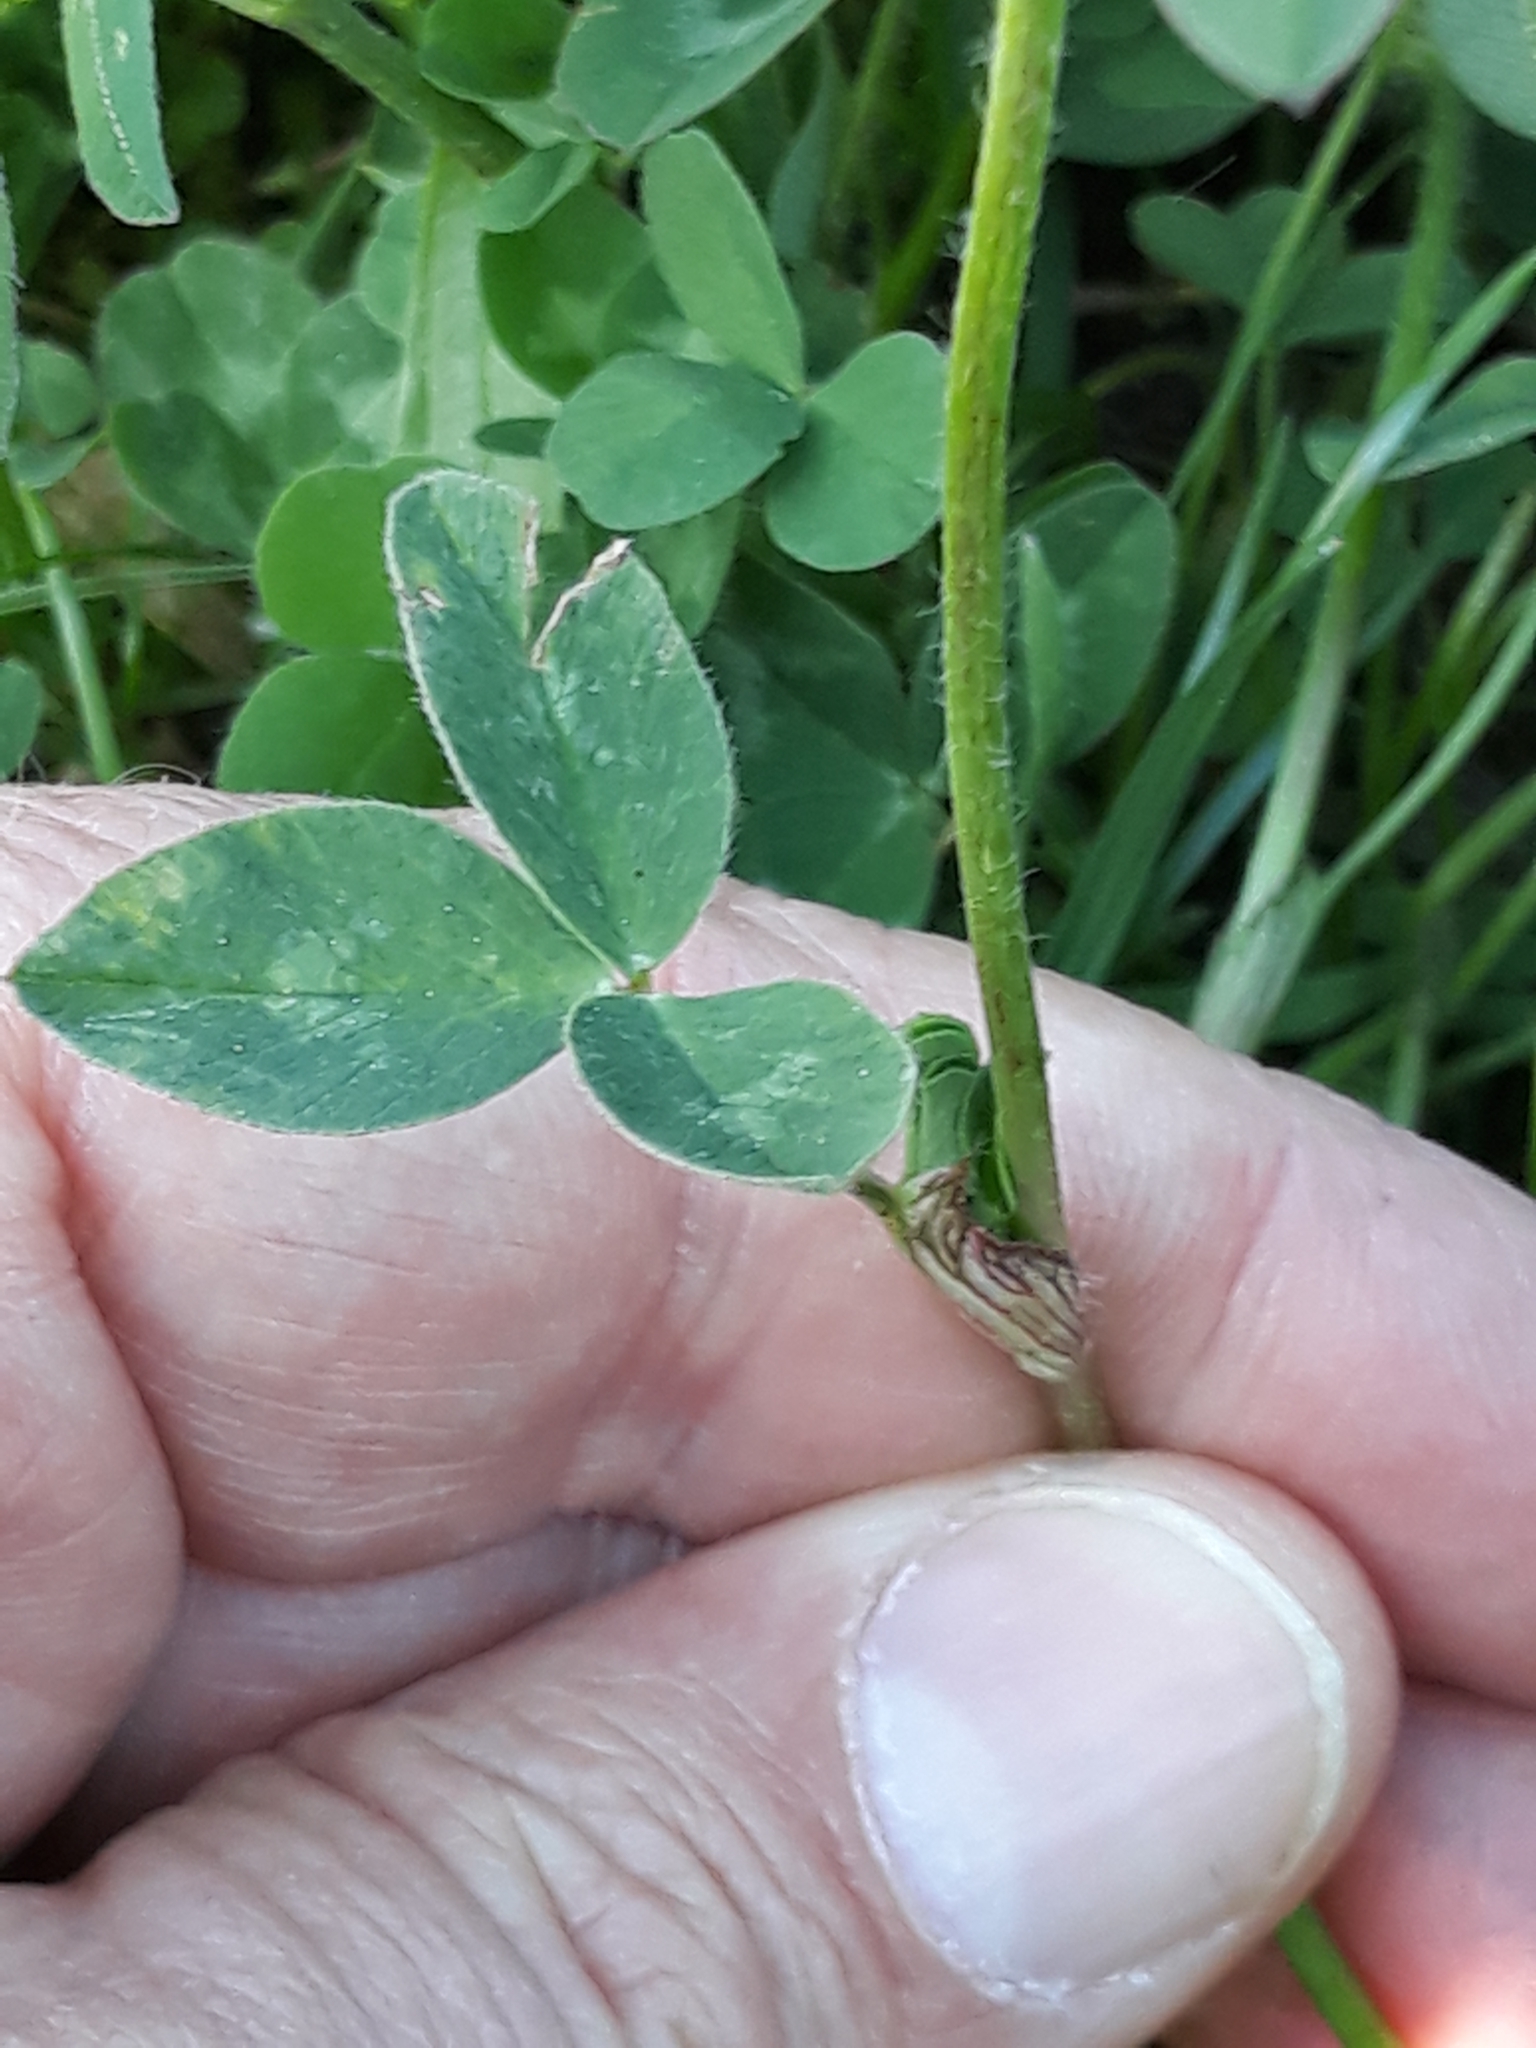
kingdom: Plantae
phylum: Tracheophyta
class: Magnoliopsida
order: Fabales
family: Fabaceae
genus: Trifolium
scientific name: Trifolium pratense
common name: Red clover
